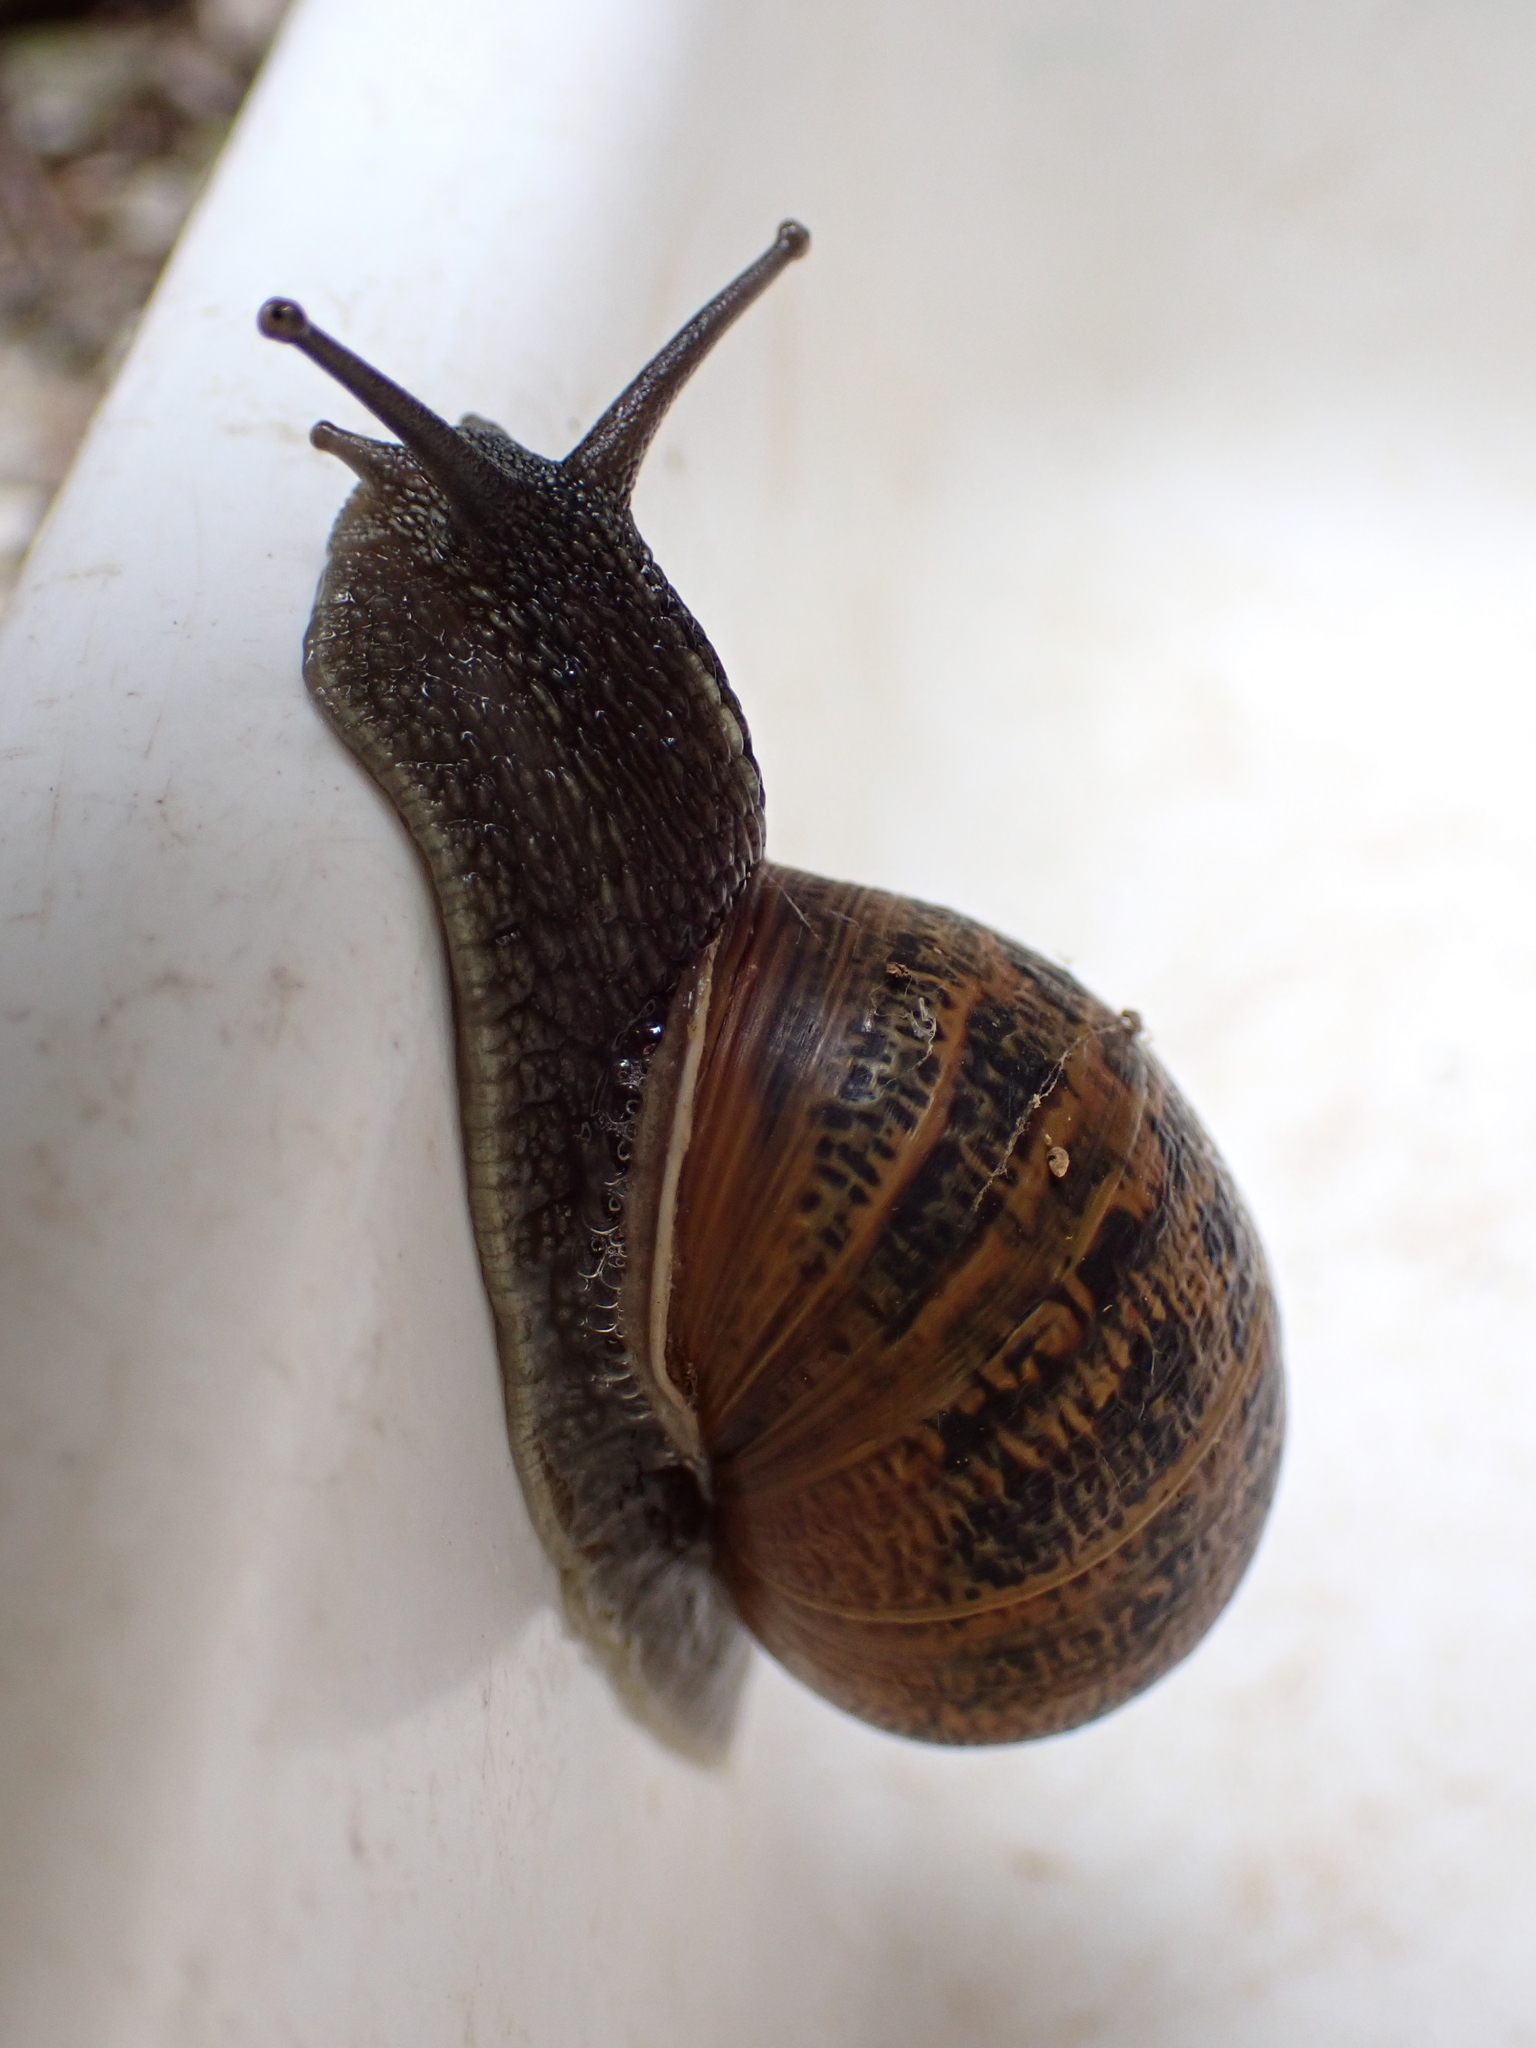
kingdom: Animalia
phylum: Mollusca
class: Gastropoda
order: Stylommatophora
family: Helicidae
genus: Cornu
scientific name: Cornu aspersum
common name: Brown garden snail
